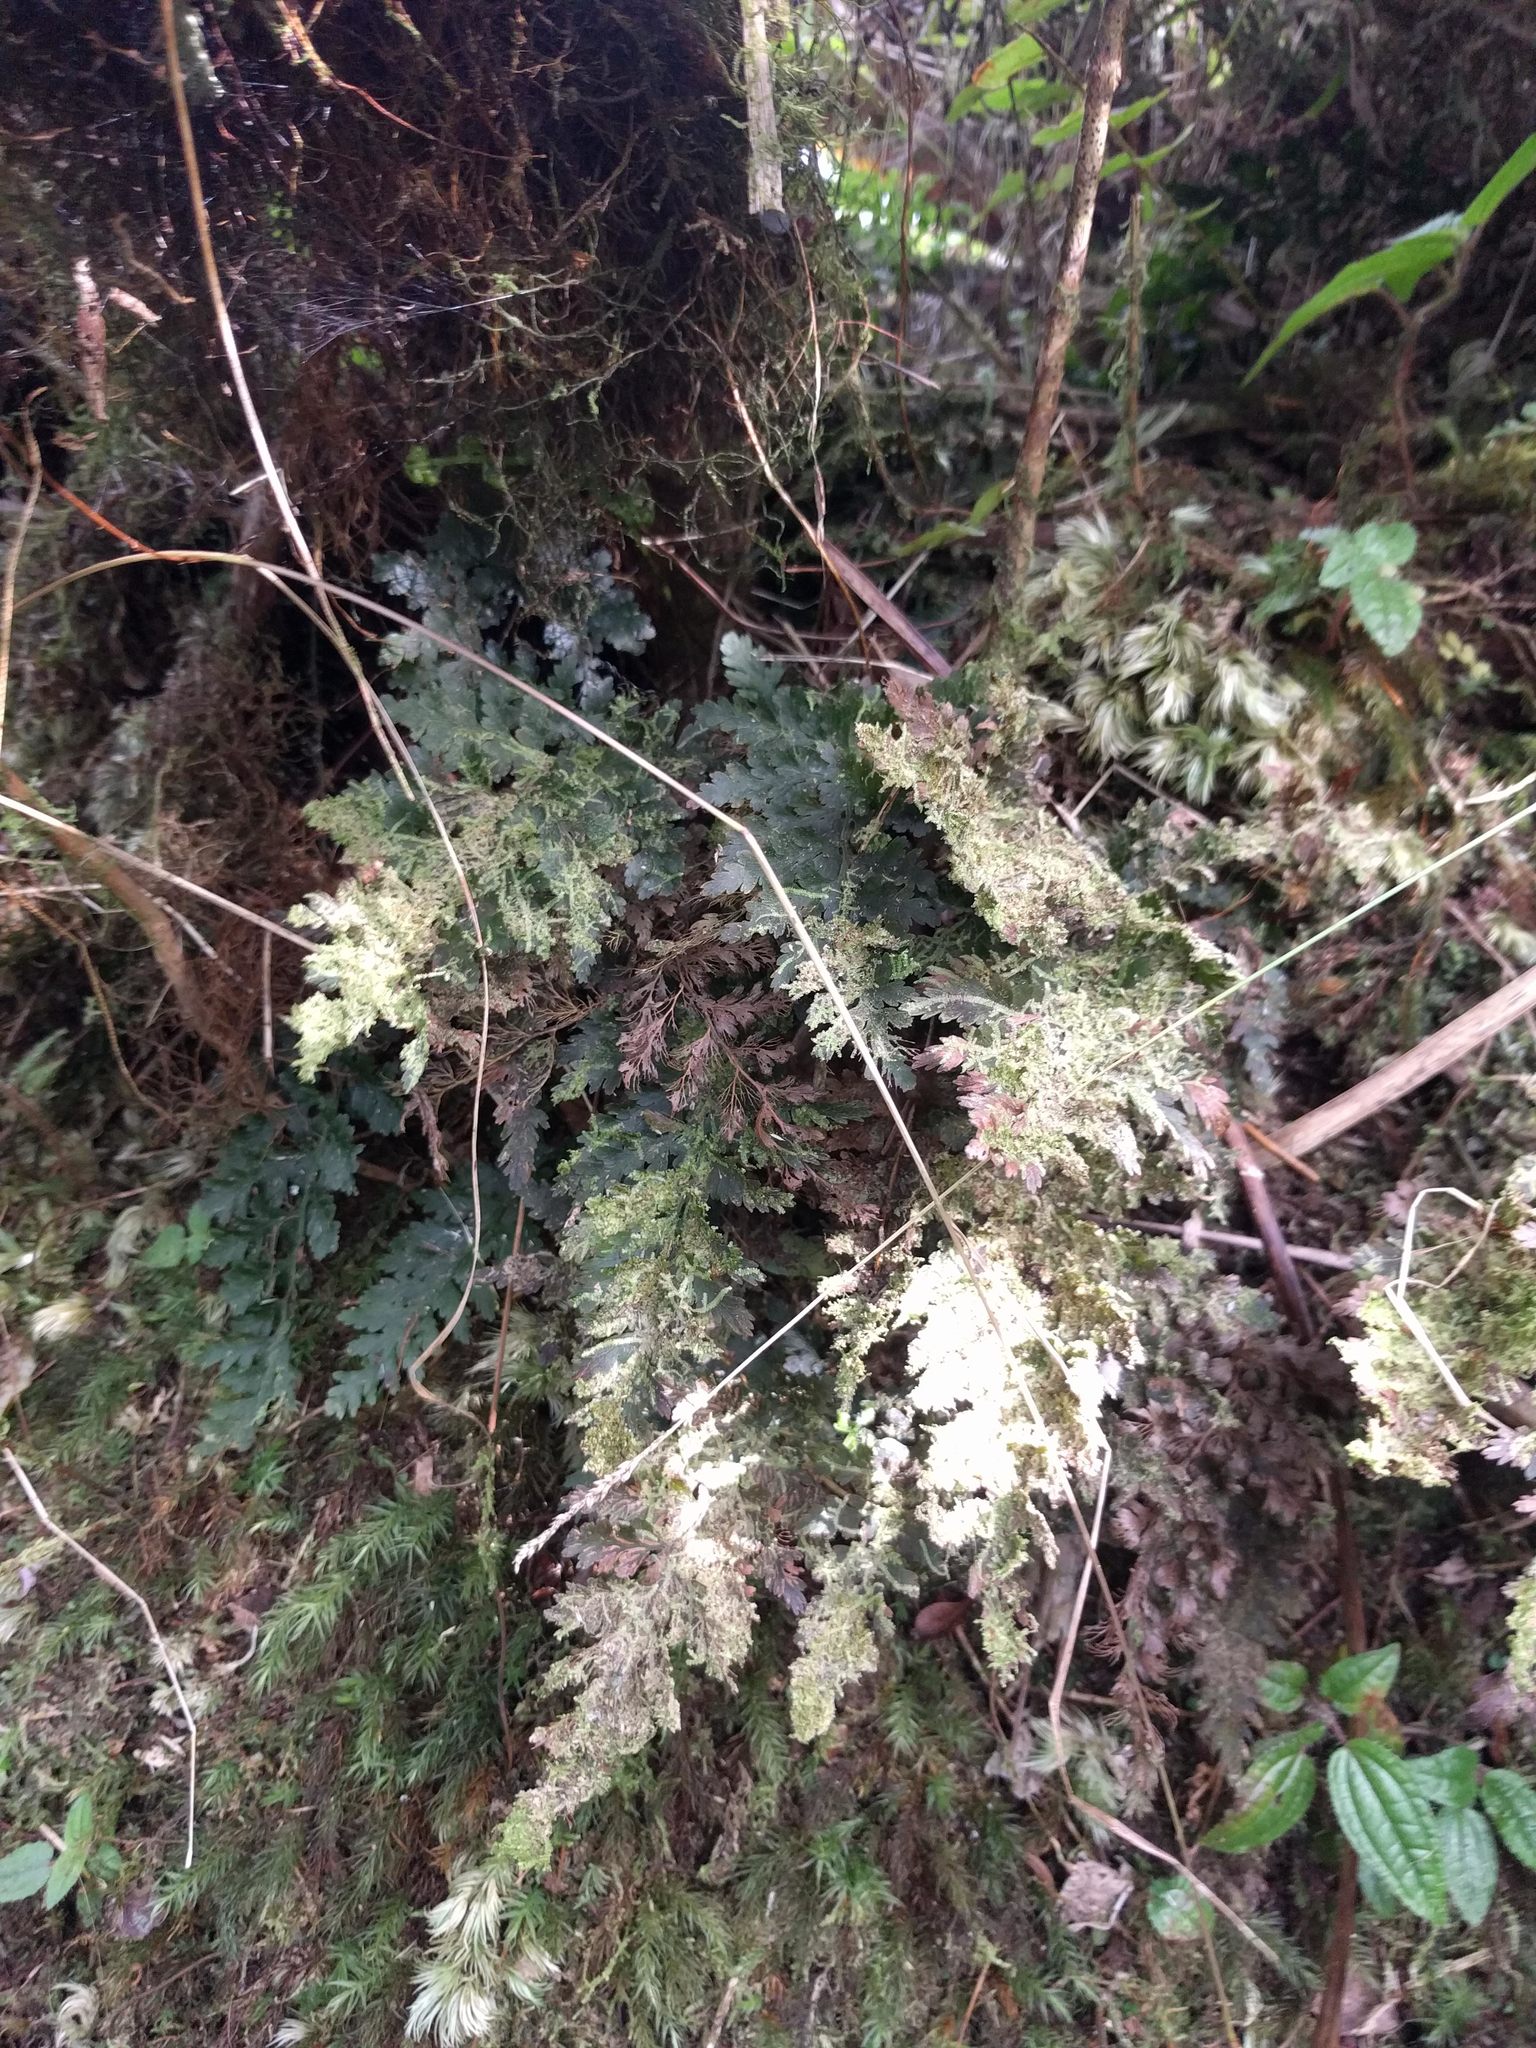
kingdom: Plantae
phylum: Tracheophyta
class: Polypodiopsida
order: Hymenophyllales
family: Hymenophyllaceae
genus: Vandenboschia
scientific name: Vandenboschia davallioides
